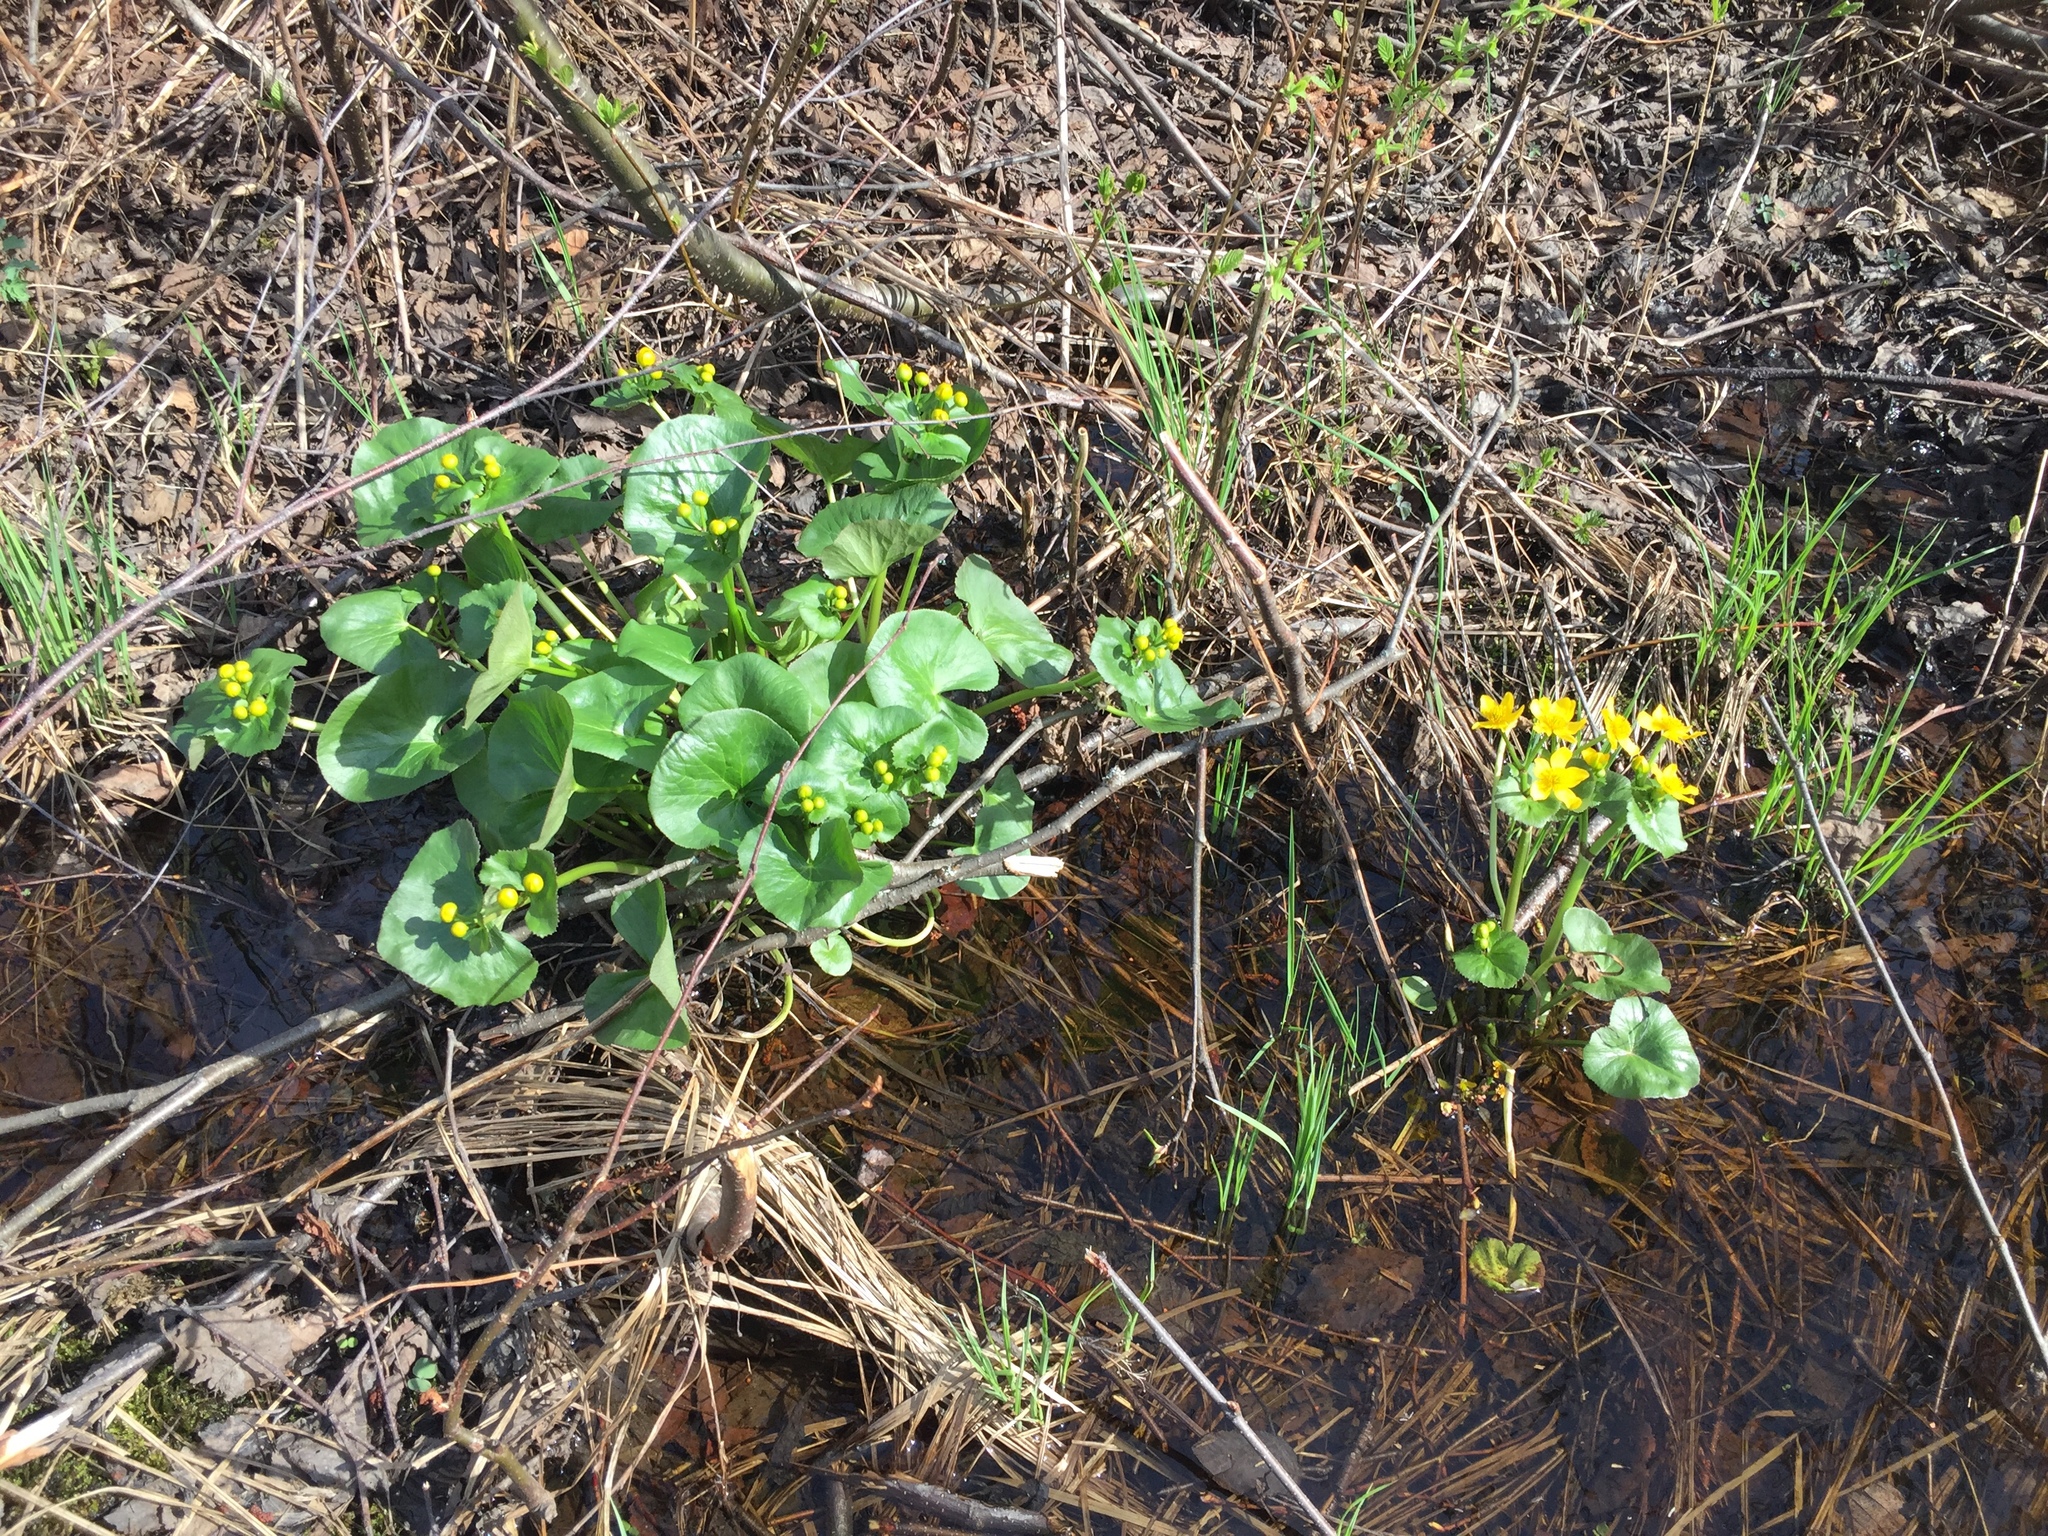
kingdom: Plantae
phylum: Tracheophyta
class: Magnoliopsida
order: Ranunculales
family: Ranunculaceae
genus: Caltha
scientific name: Caltha palustris
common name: Marsh marigold
